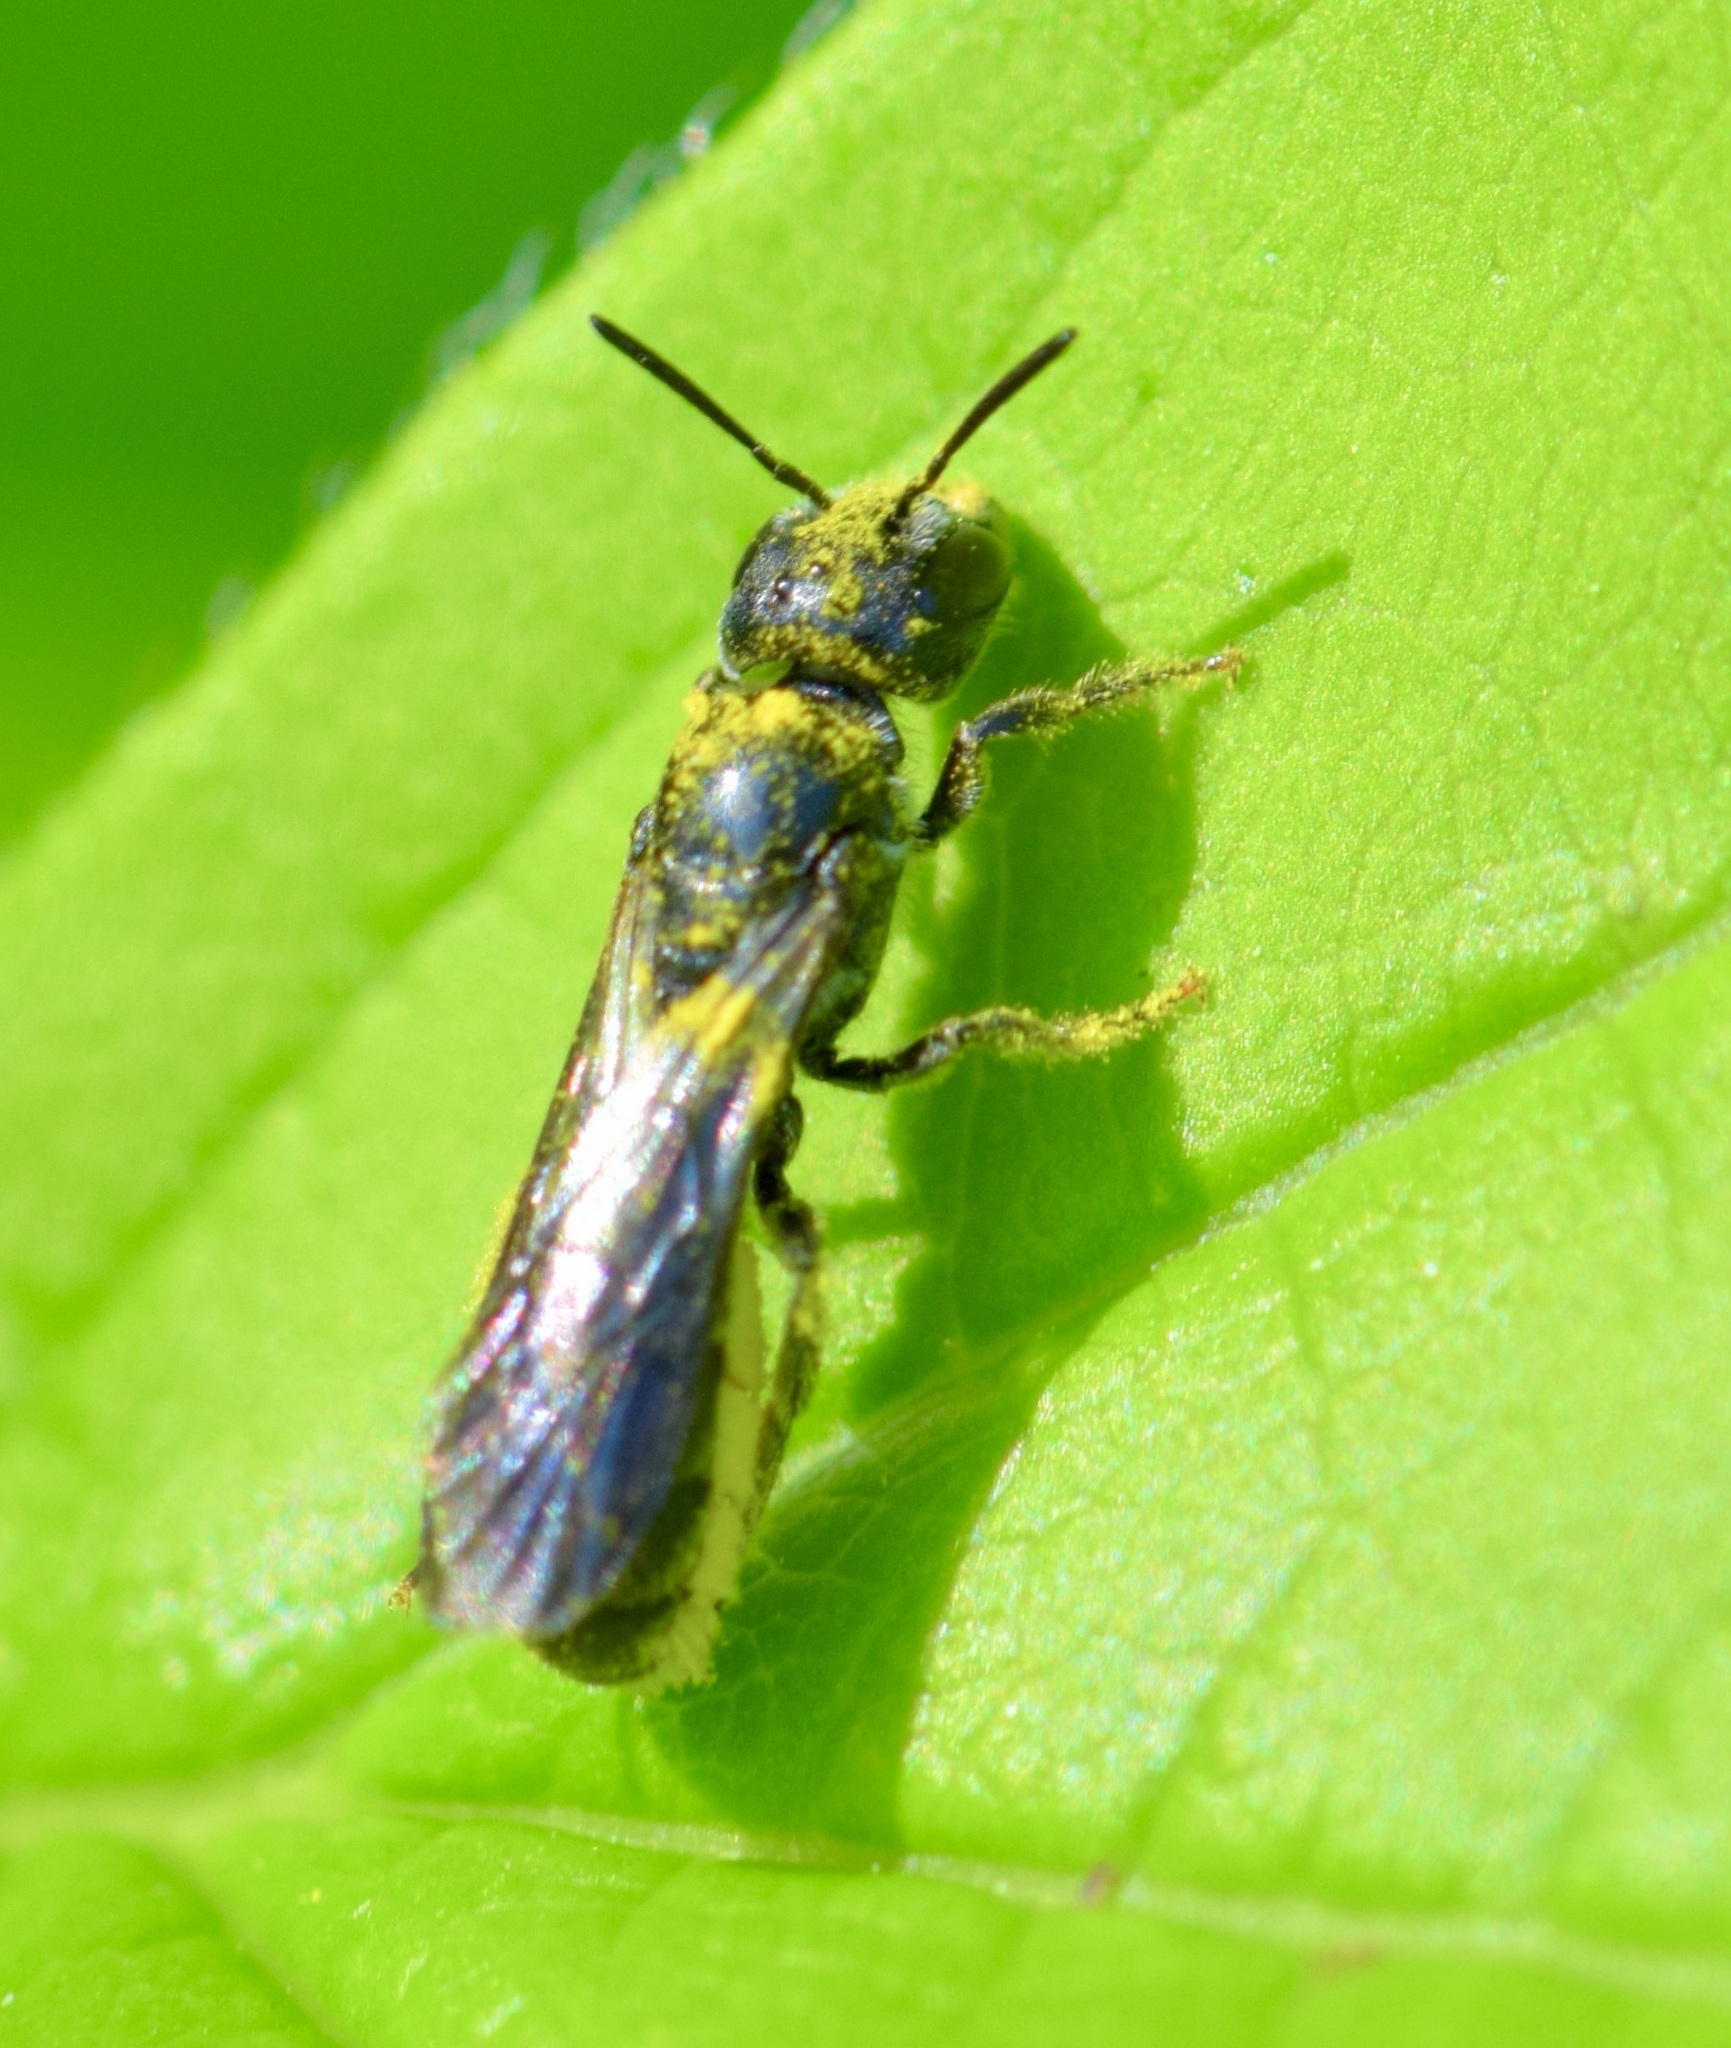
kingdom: Animalia
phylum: Arthropoda
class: Insecta
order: Hymenoptera
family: Megachilidae
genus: Chelostoma
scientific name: Chelostoma philadelphi
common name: Mock-orange scissor bee
